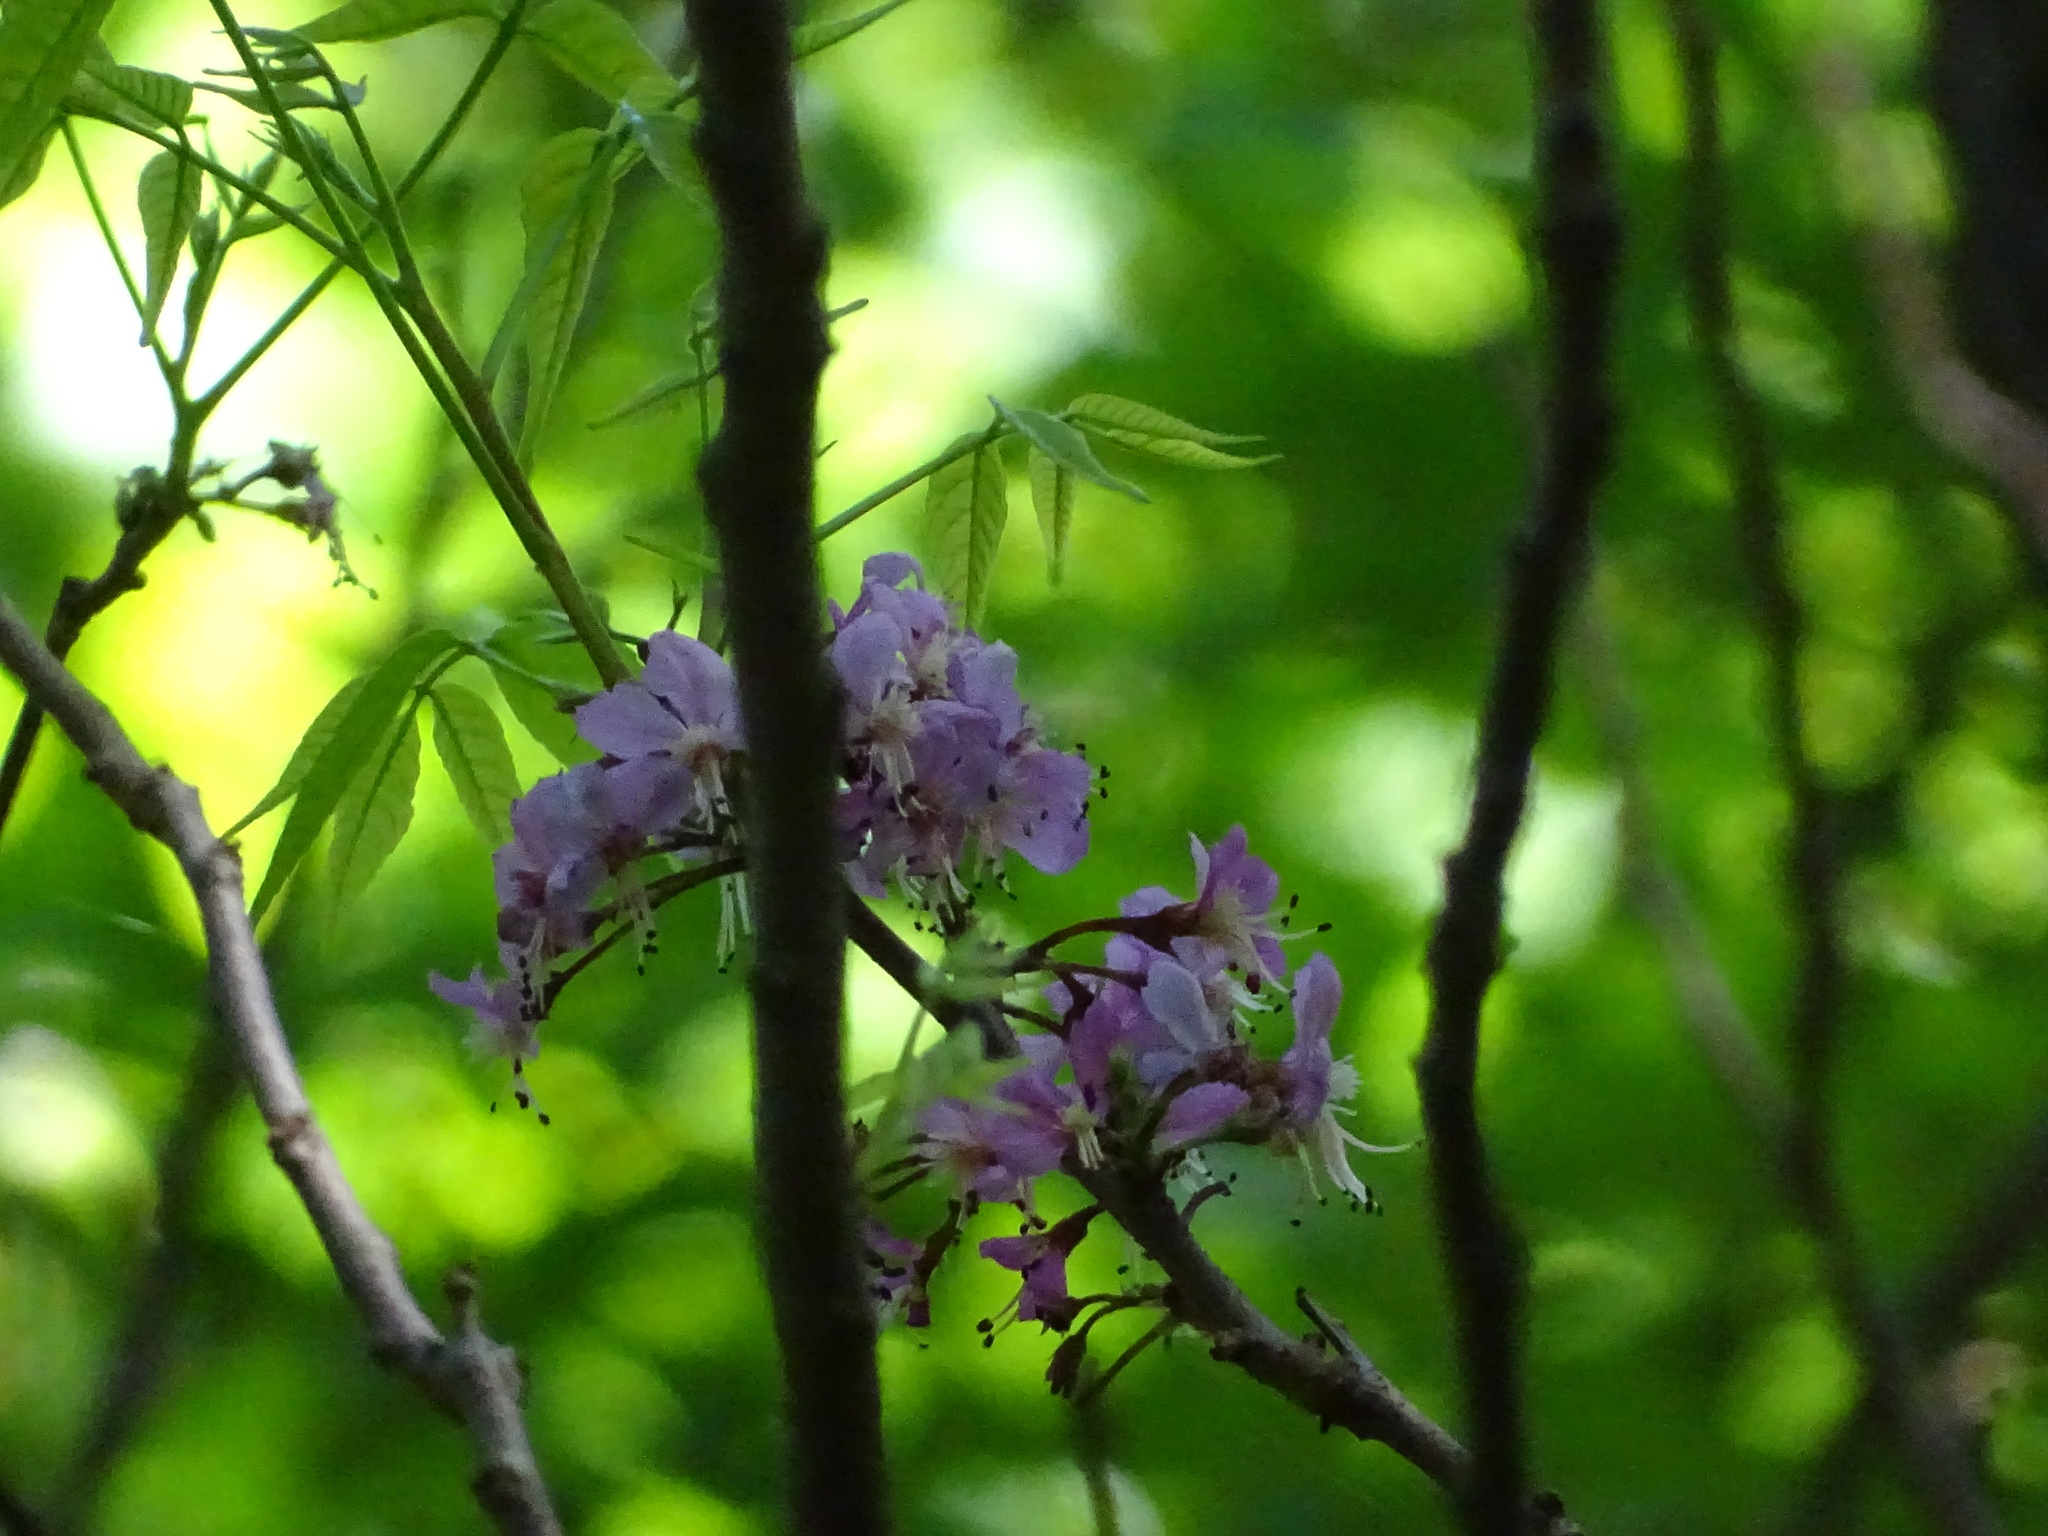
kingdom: Plantae
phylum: Tracheophyta
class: Magnoliopsida
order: Sapindales
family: Sapindaceae
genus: Ungnadia
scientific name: Ungnadia speciosa
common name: Texas-buckeye
